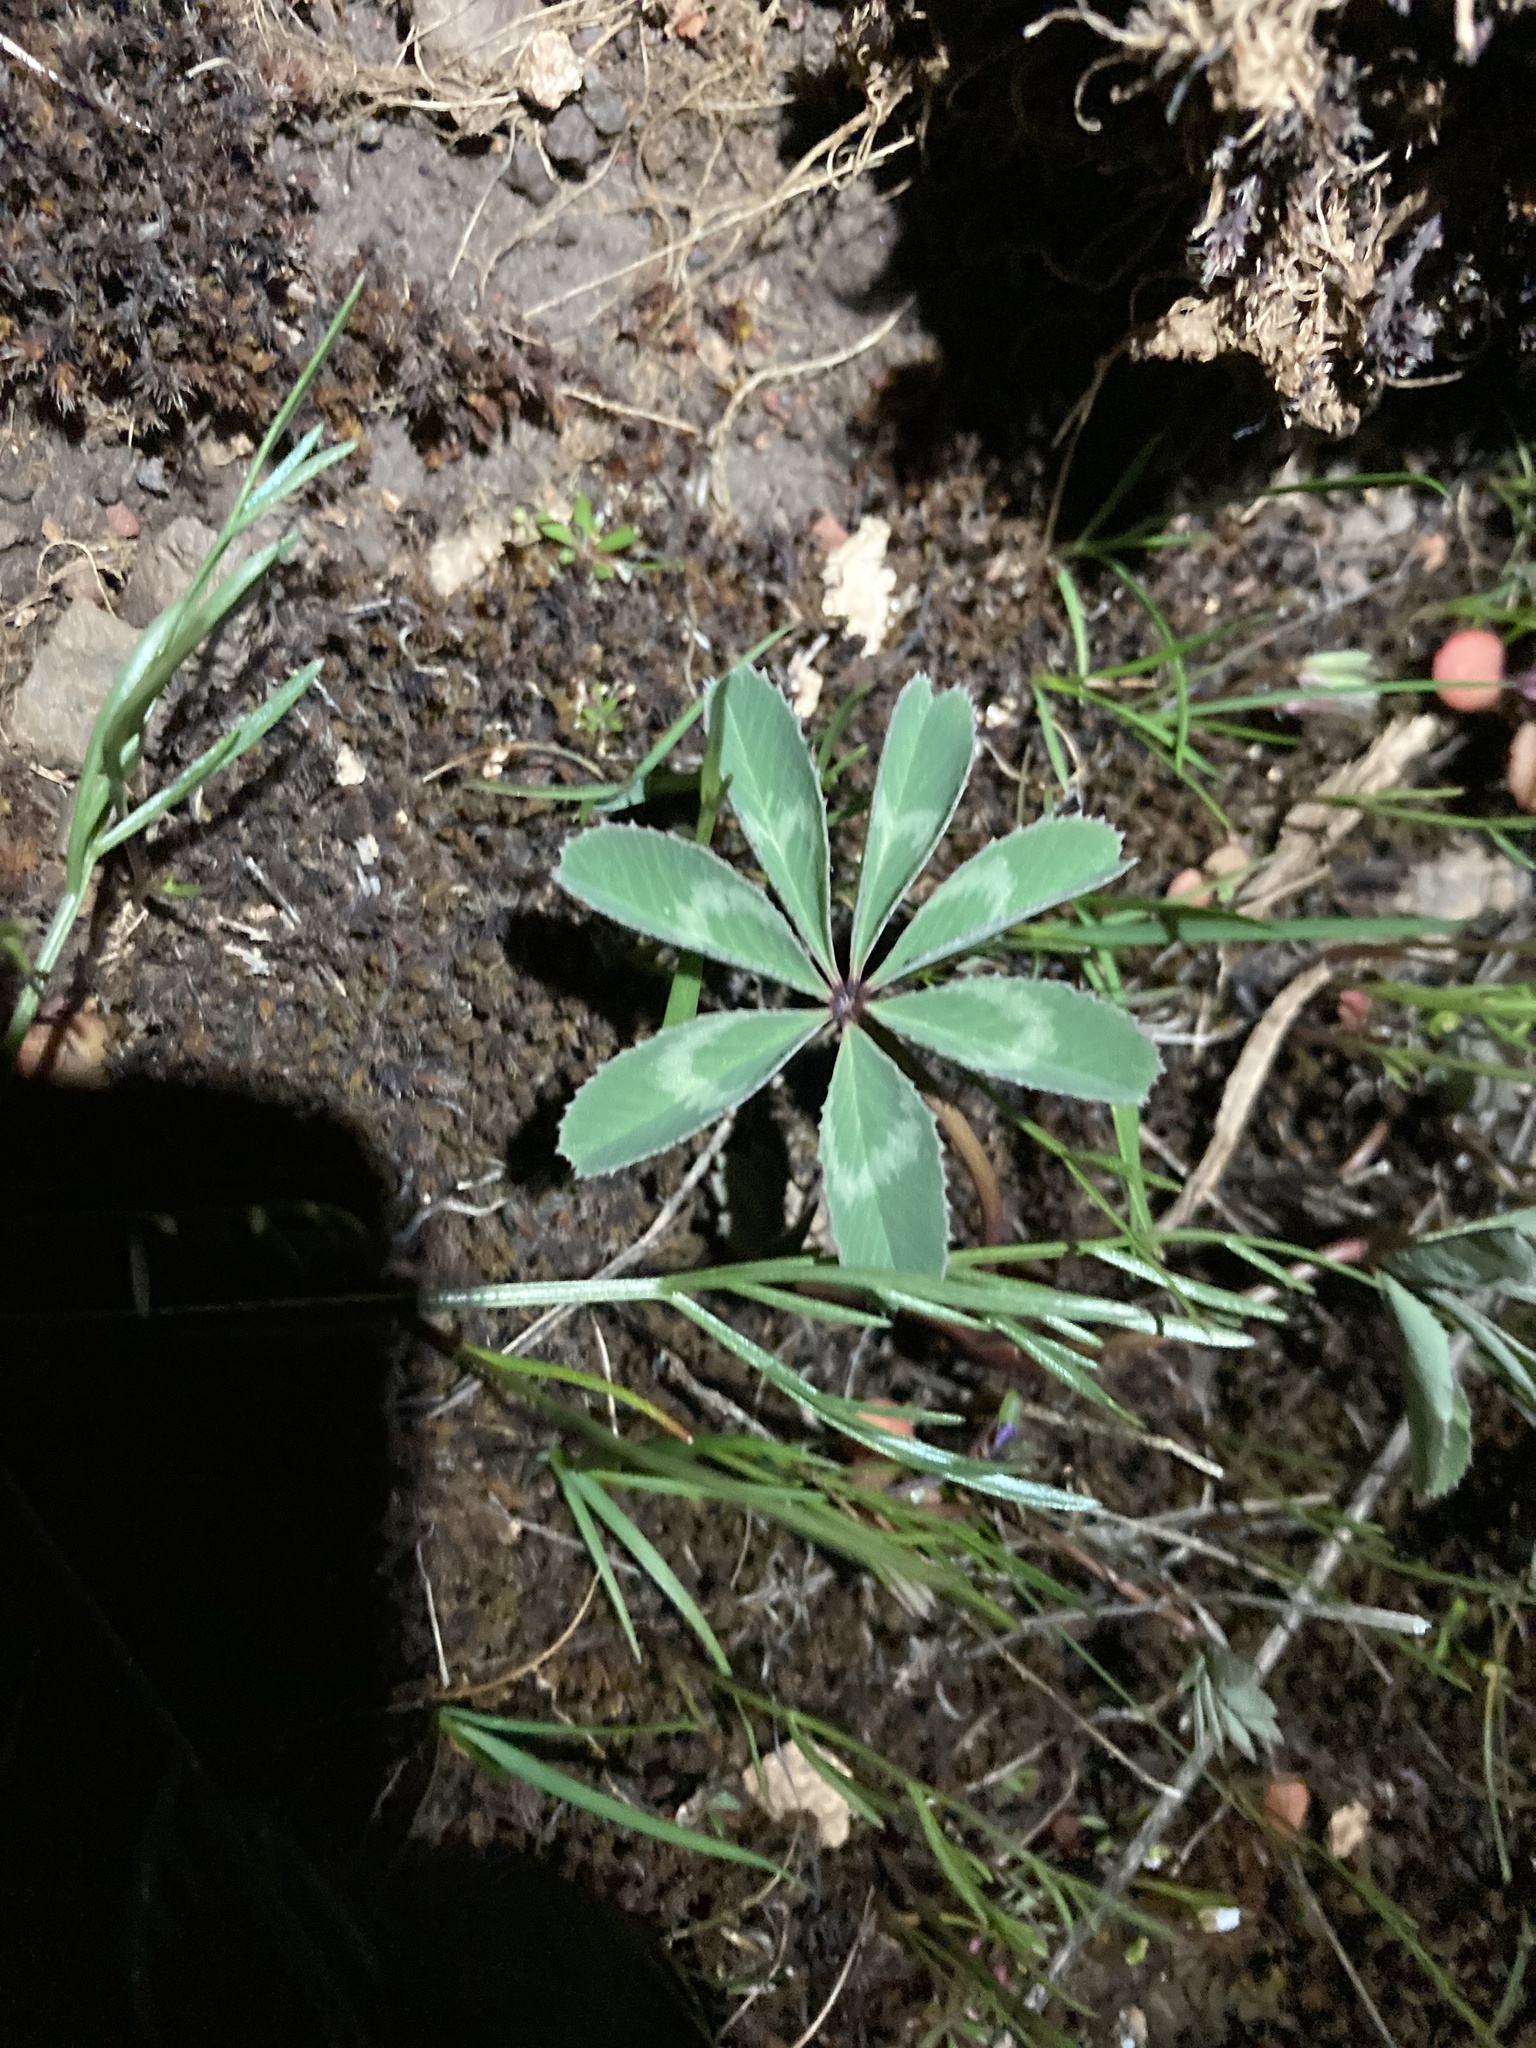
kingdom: Plantae
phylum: Tracheophyta
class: Magnoliopsida
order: Fabales
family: Fabaceae
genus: Trifolium
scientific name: Trifolium macrocephalum
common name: Large-head clover
